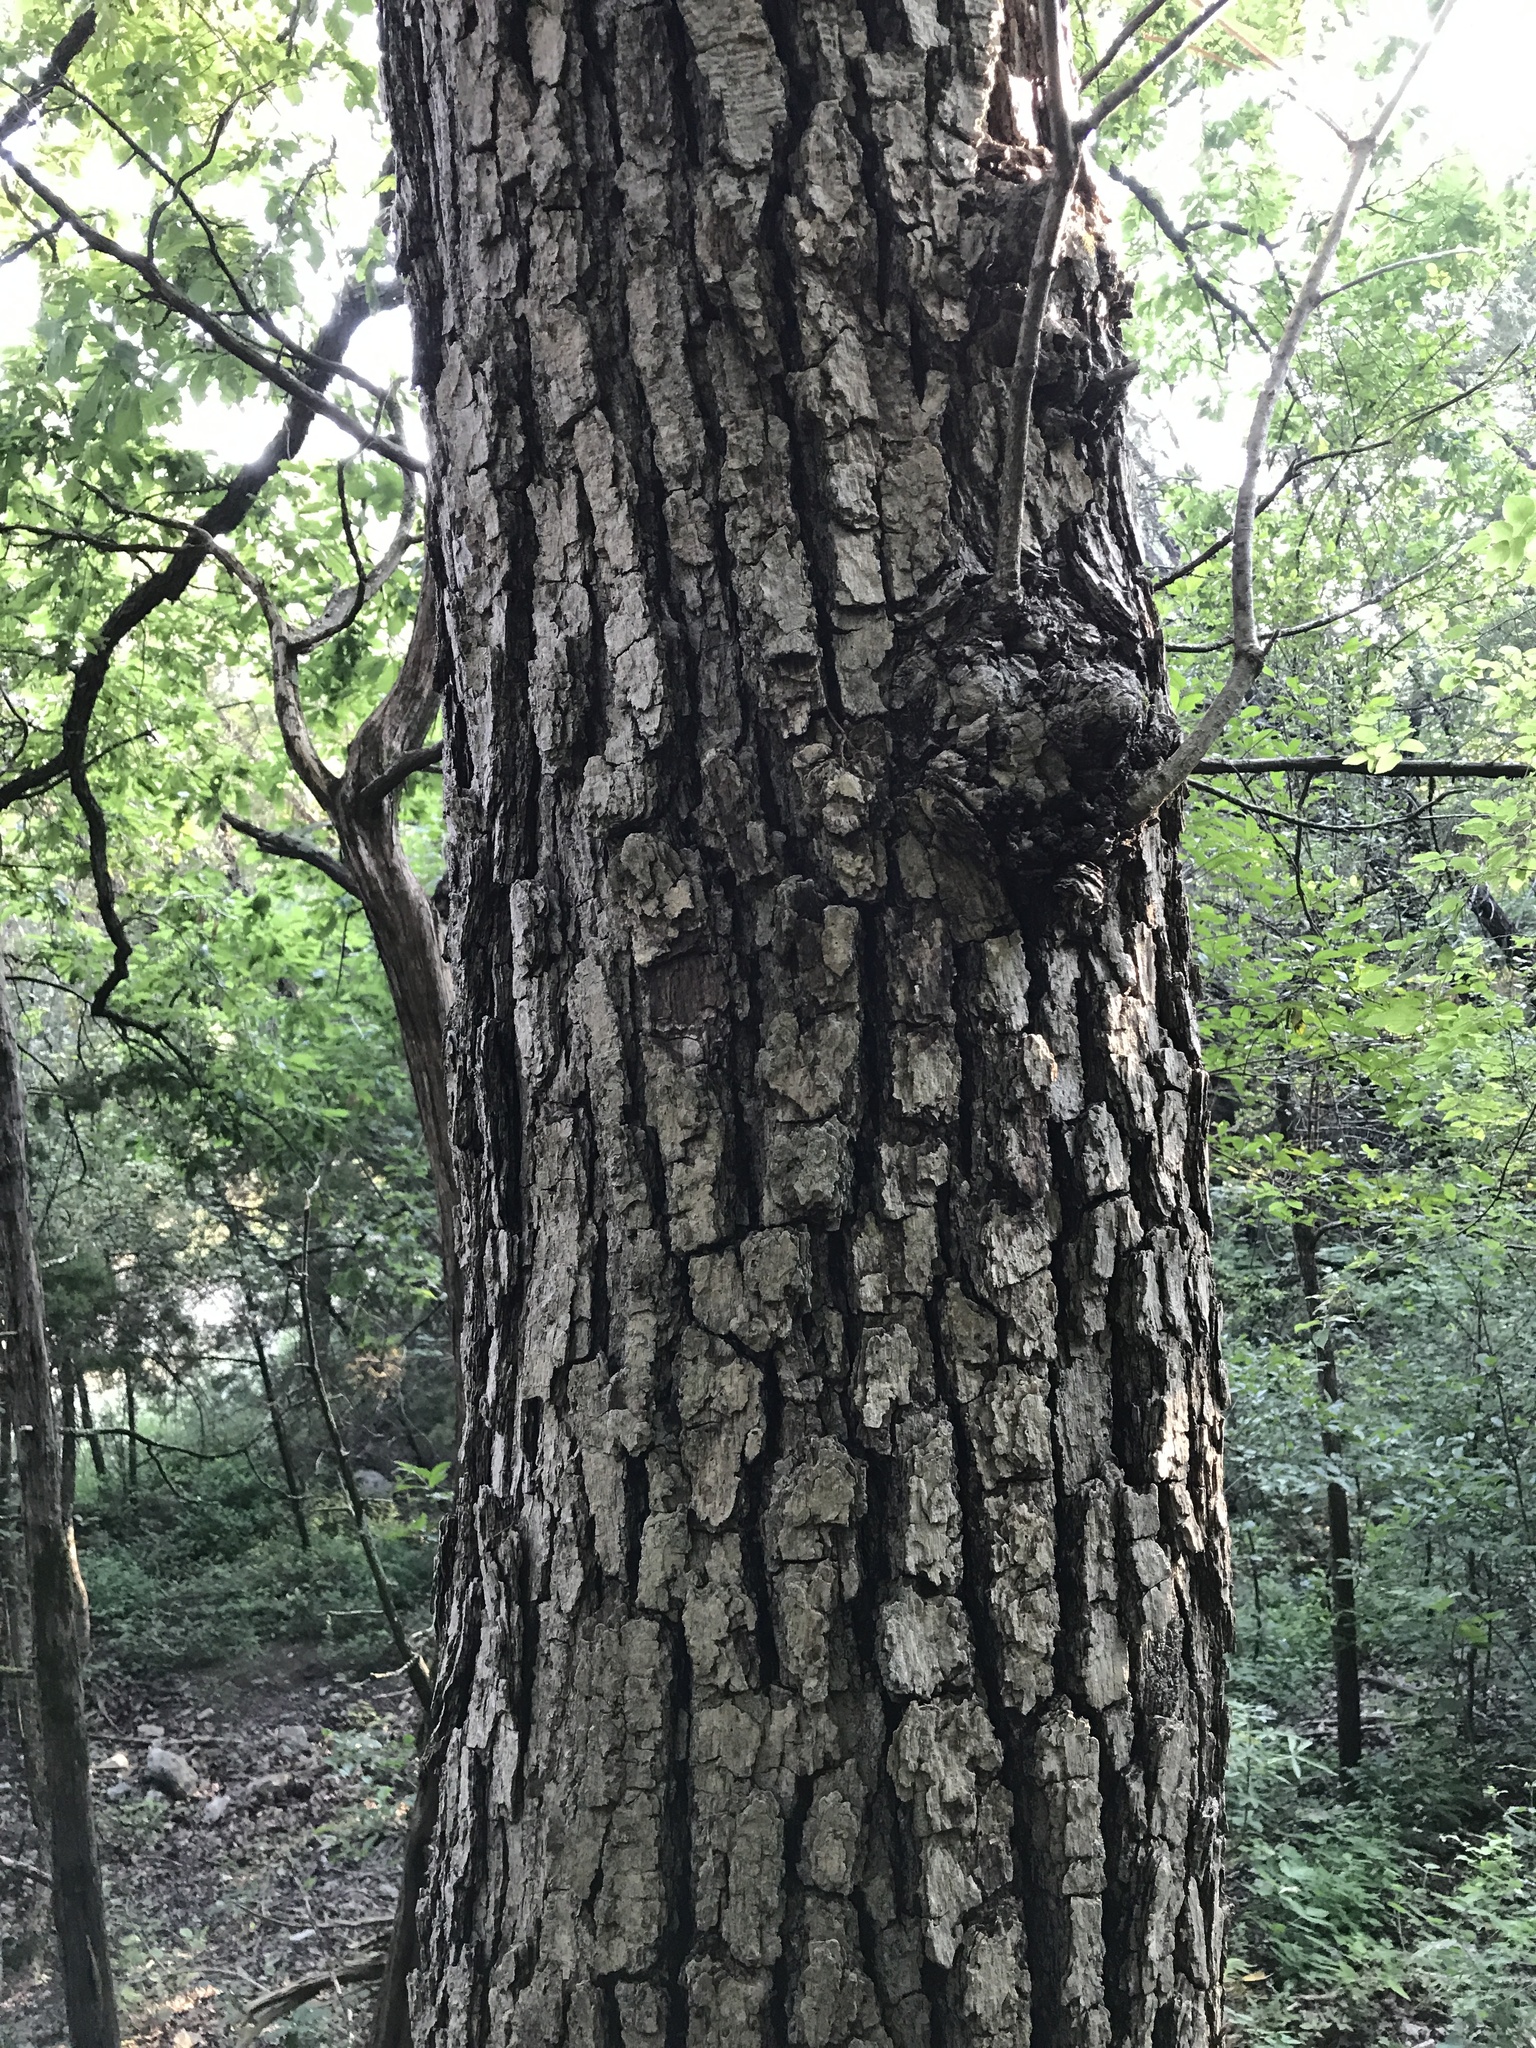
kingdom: Plantae
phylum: Tracheophyta
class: Magnoliopsida
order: Fagales
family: Fagaceae
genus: Quercus
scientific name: Quercus muehlenbergii
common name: Chinkapin oak
